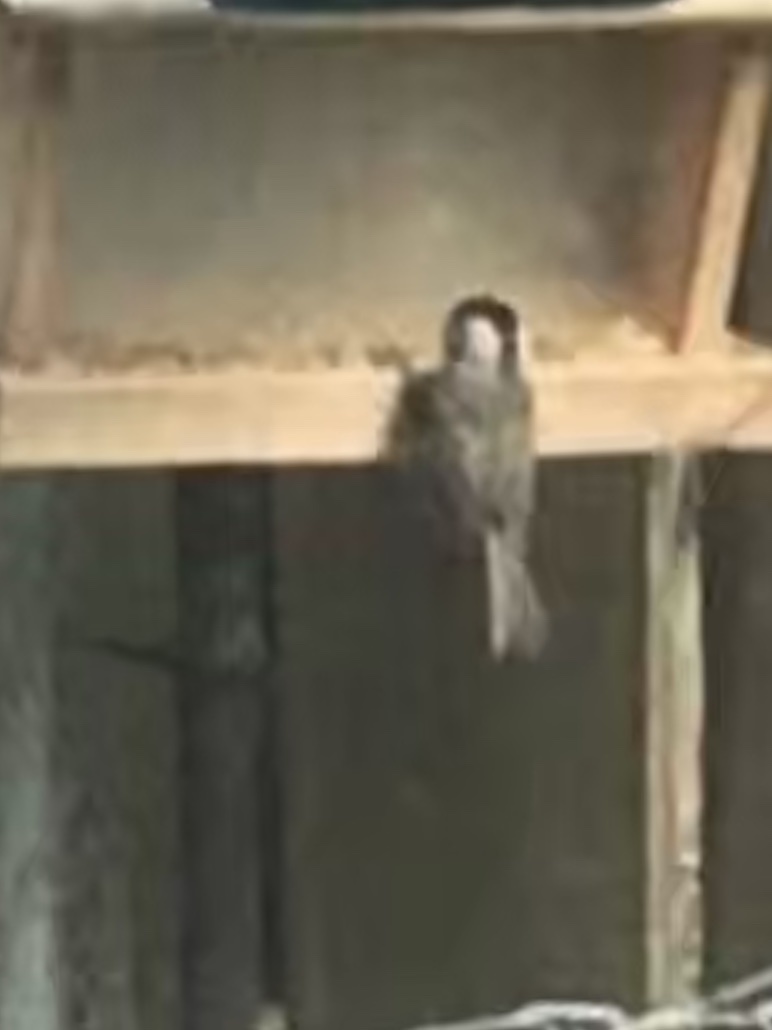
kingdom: Animalia
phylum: Chordata
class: Aves
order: Passeriformes
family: Paridae
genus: Poecile
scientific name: Poecile carolinensis
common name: Carolina chickadee
